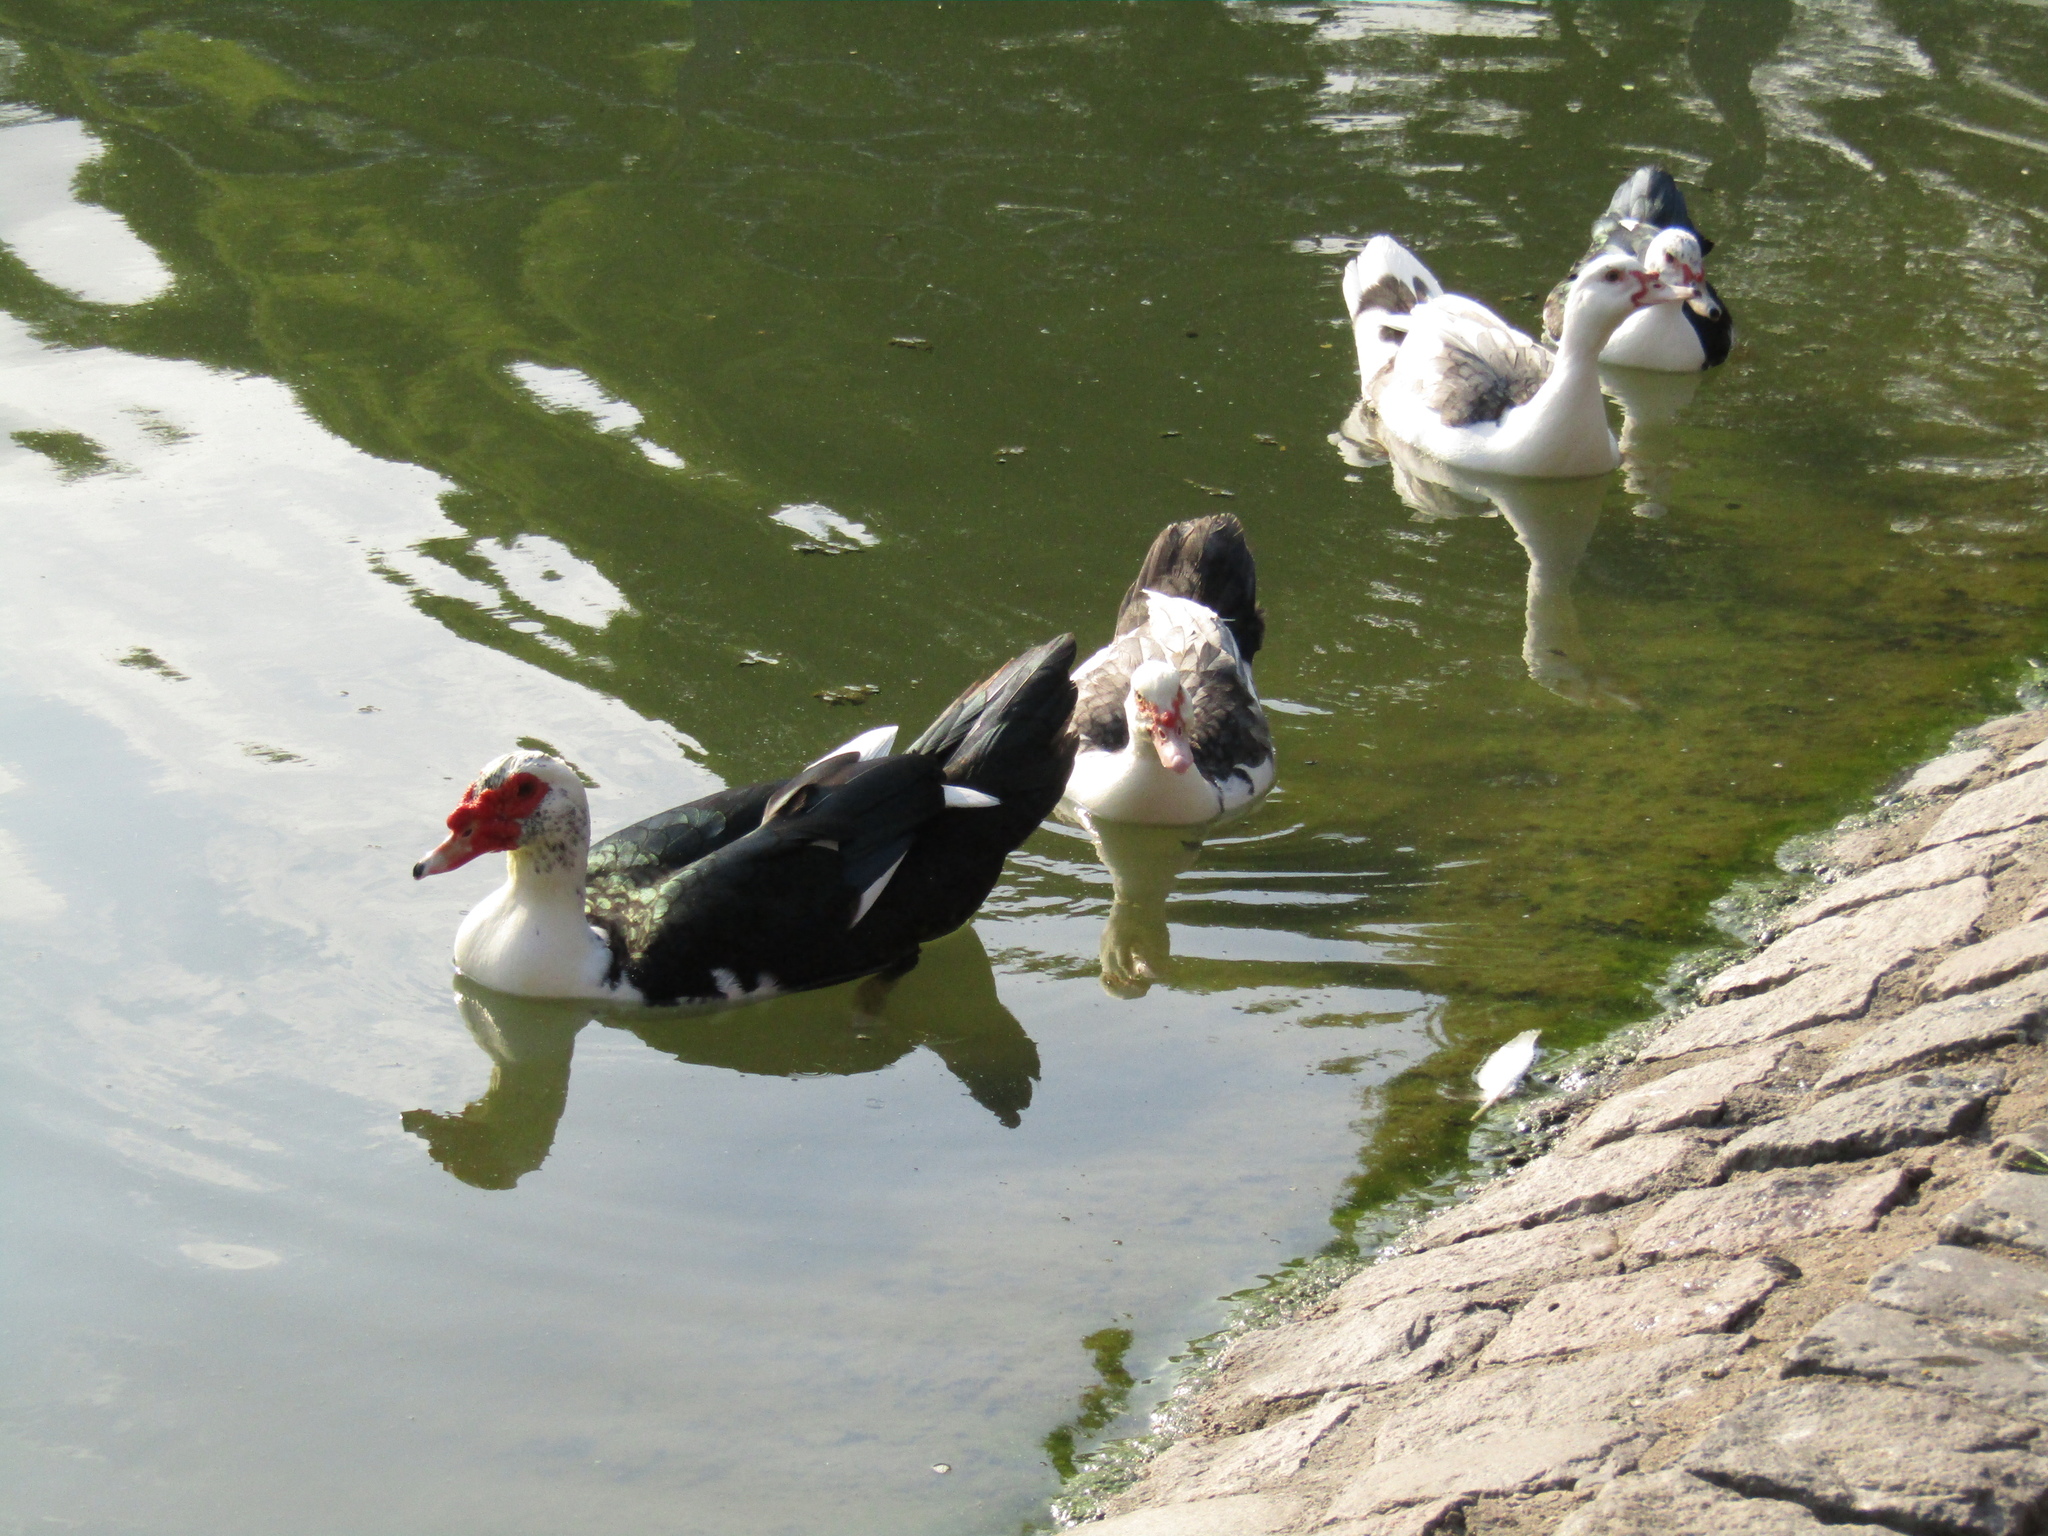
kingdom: Animalia
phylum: Chordata
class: Aves
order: Anseriformes
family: Anatidae
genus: Cairina
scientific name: Cairina moschata
